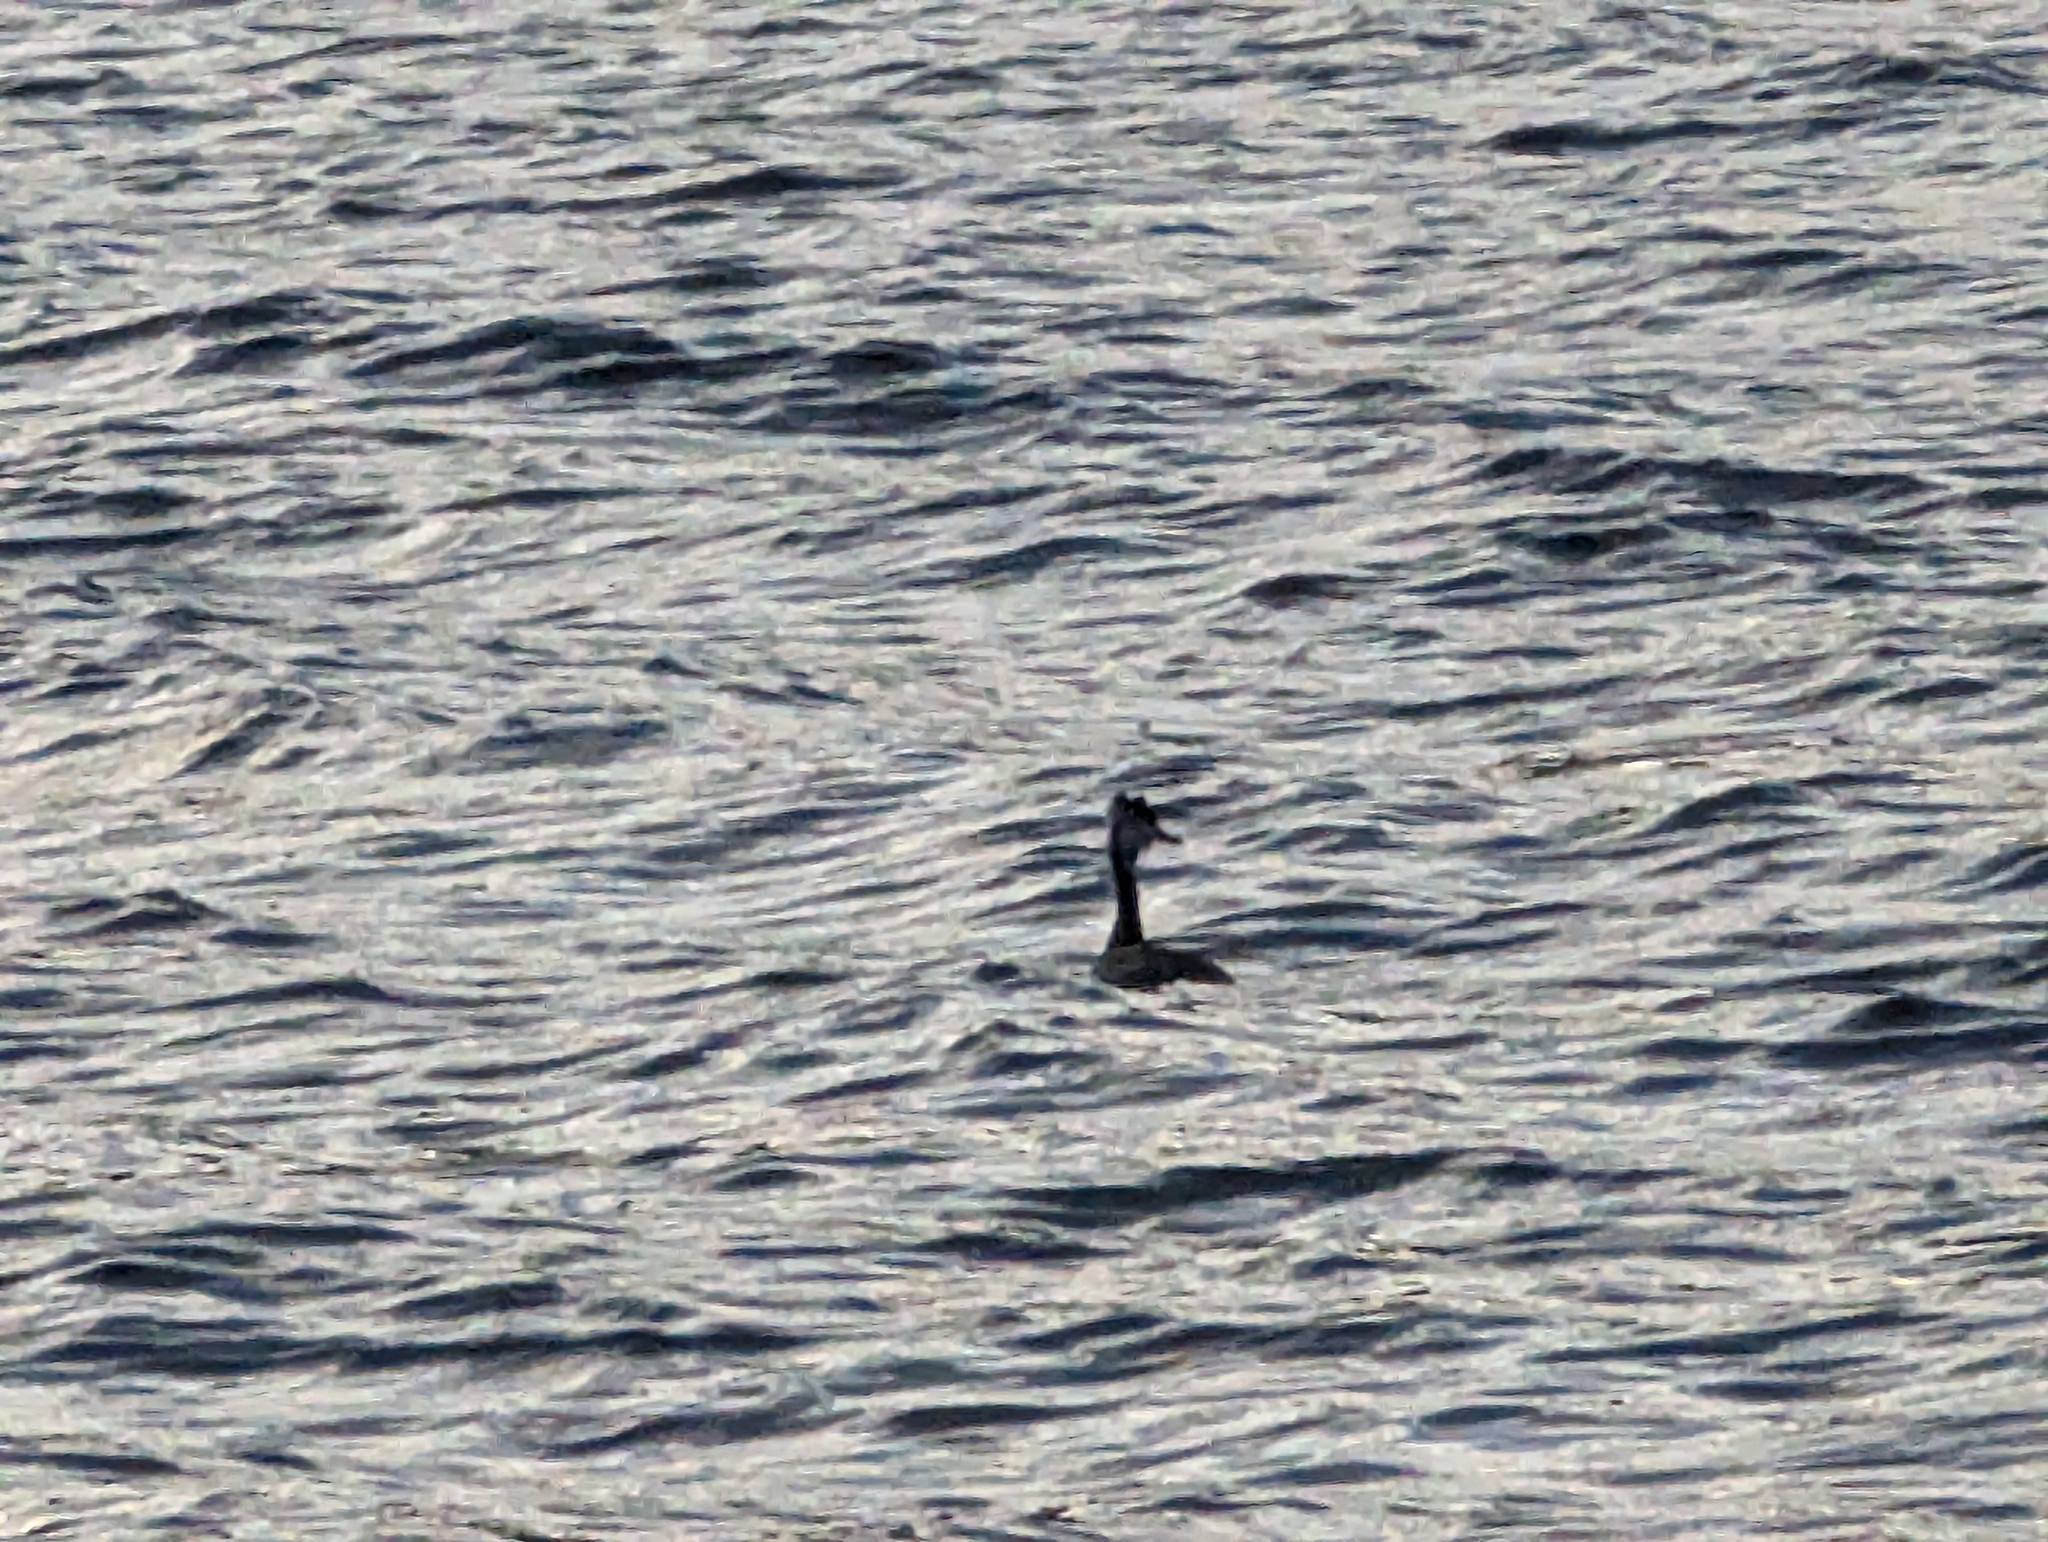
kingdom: Animalia
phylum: Chordata
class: Aves
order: Podicipediformes
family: Podicipedidae
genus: Podiceps
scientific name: Podiceps cristatus
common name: Great crested grebe
